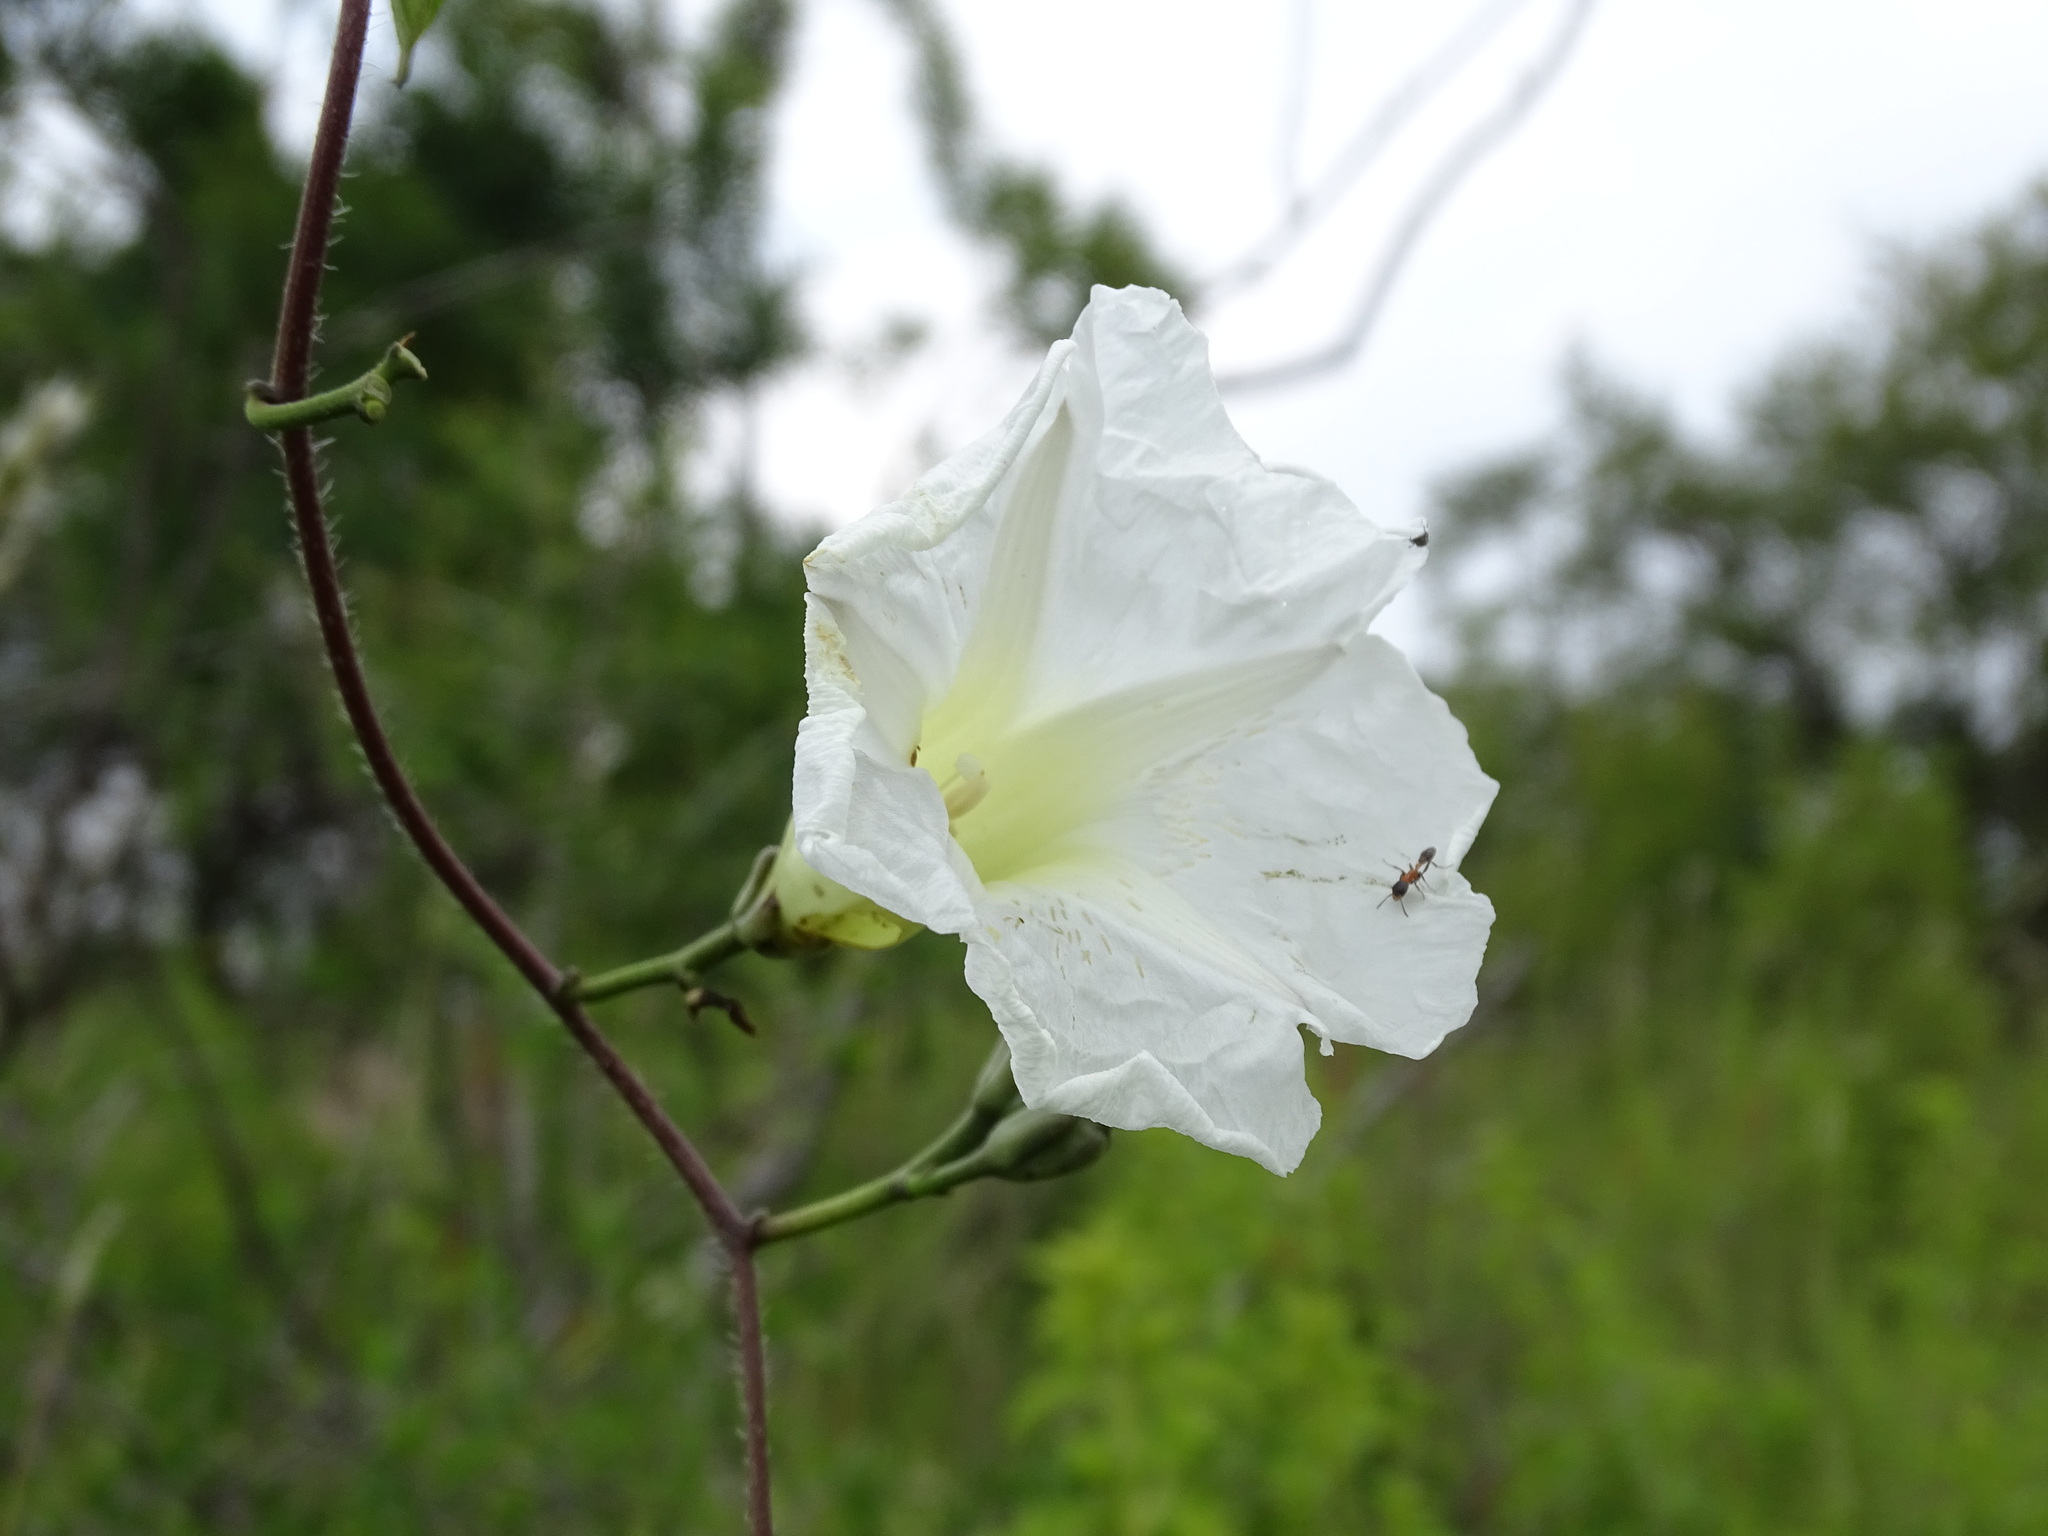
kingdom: Plantae
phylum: Tracheophyta
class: Magnoliopsida
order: Solanales
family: Convolvulaceae
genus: Ipomoea
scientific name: Ipomoea proxima
